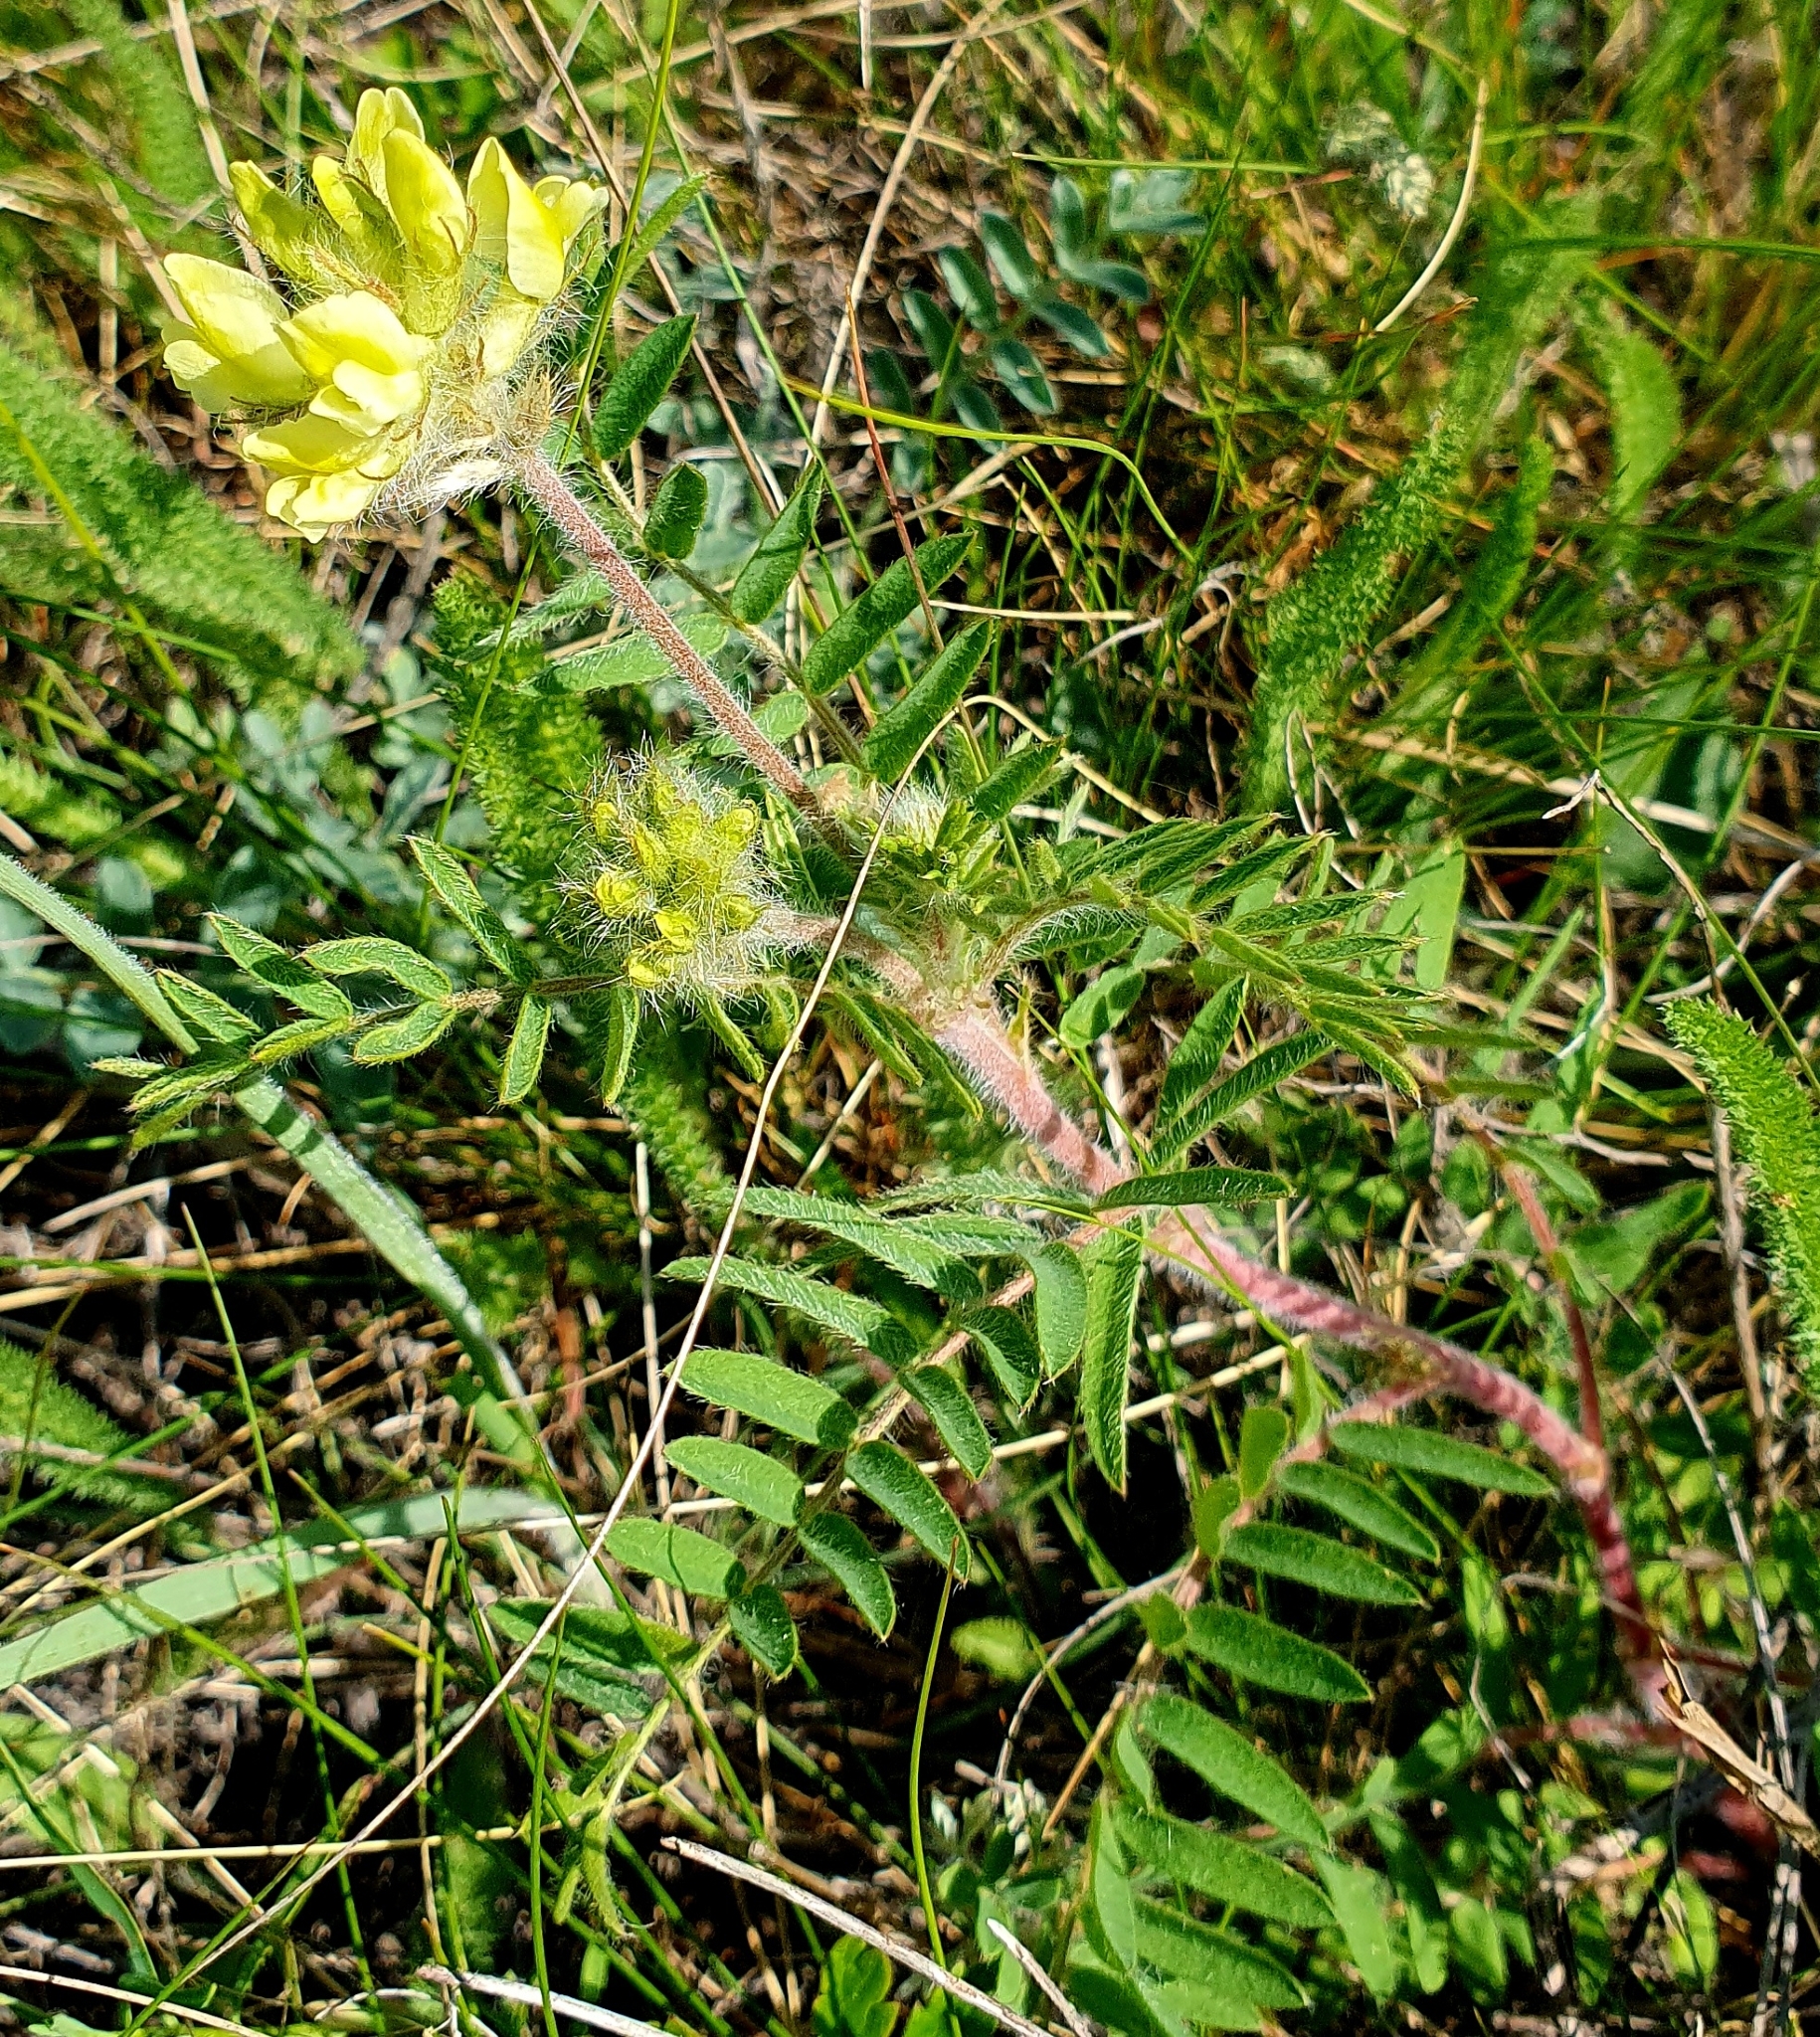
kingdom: Plantae
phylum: Tracheophyta
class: Magnoliopsida
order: Fabales
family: Fabaceae
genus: Oxytropis
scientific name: Oxytropis pilosa
